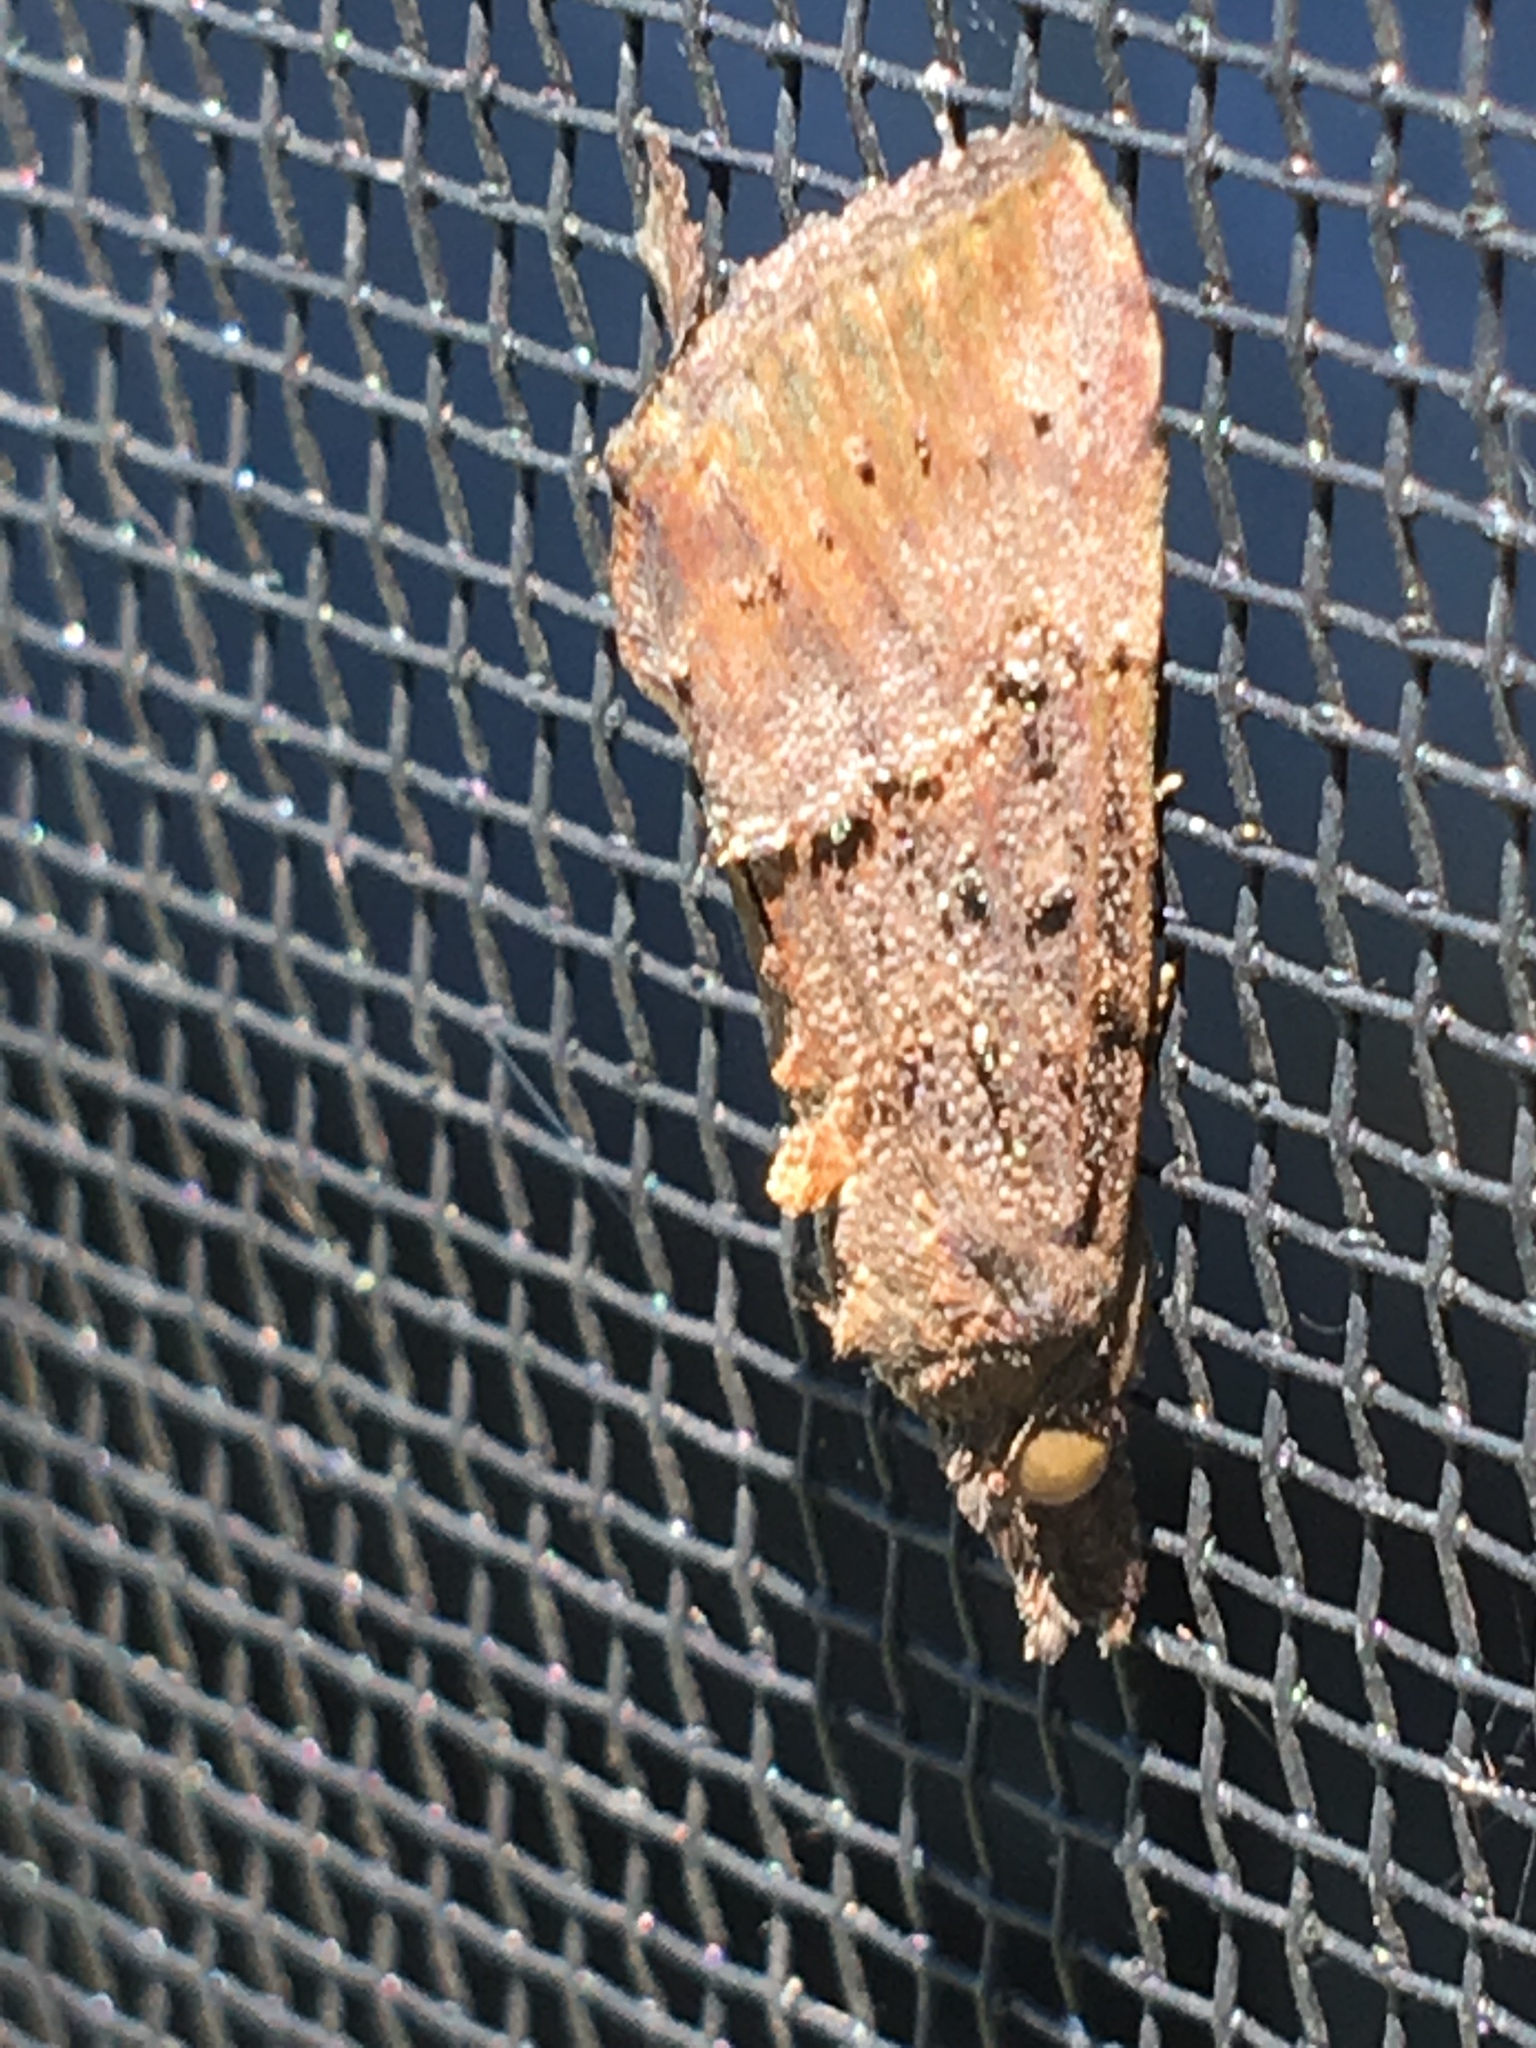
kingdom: Animalia
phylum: Arthropoda
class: Insecta
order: Lepidoptera
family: Erebidae
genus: Hypena
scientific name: Hypena scabra
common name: Green cloverworm
